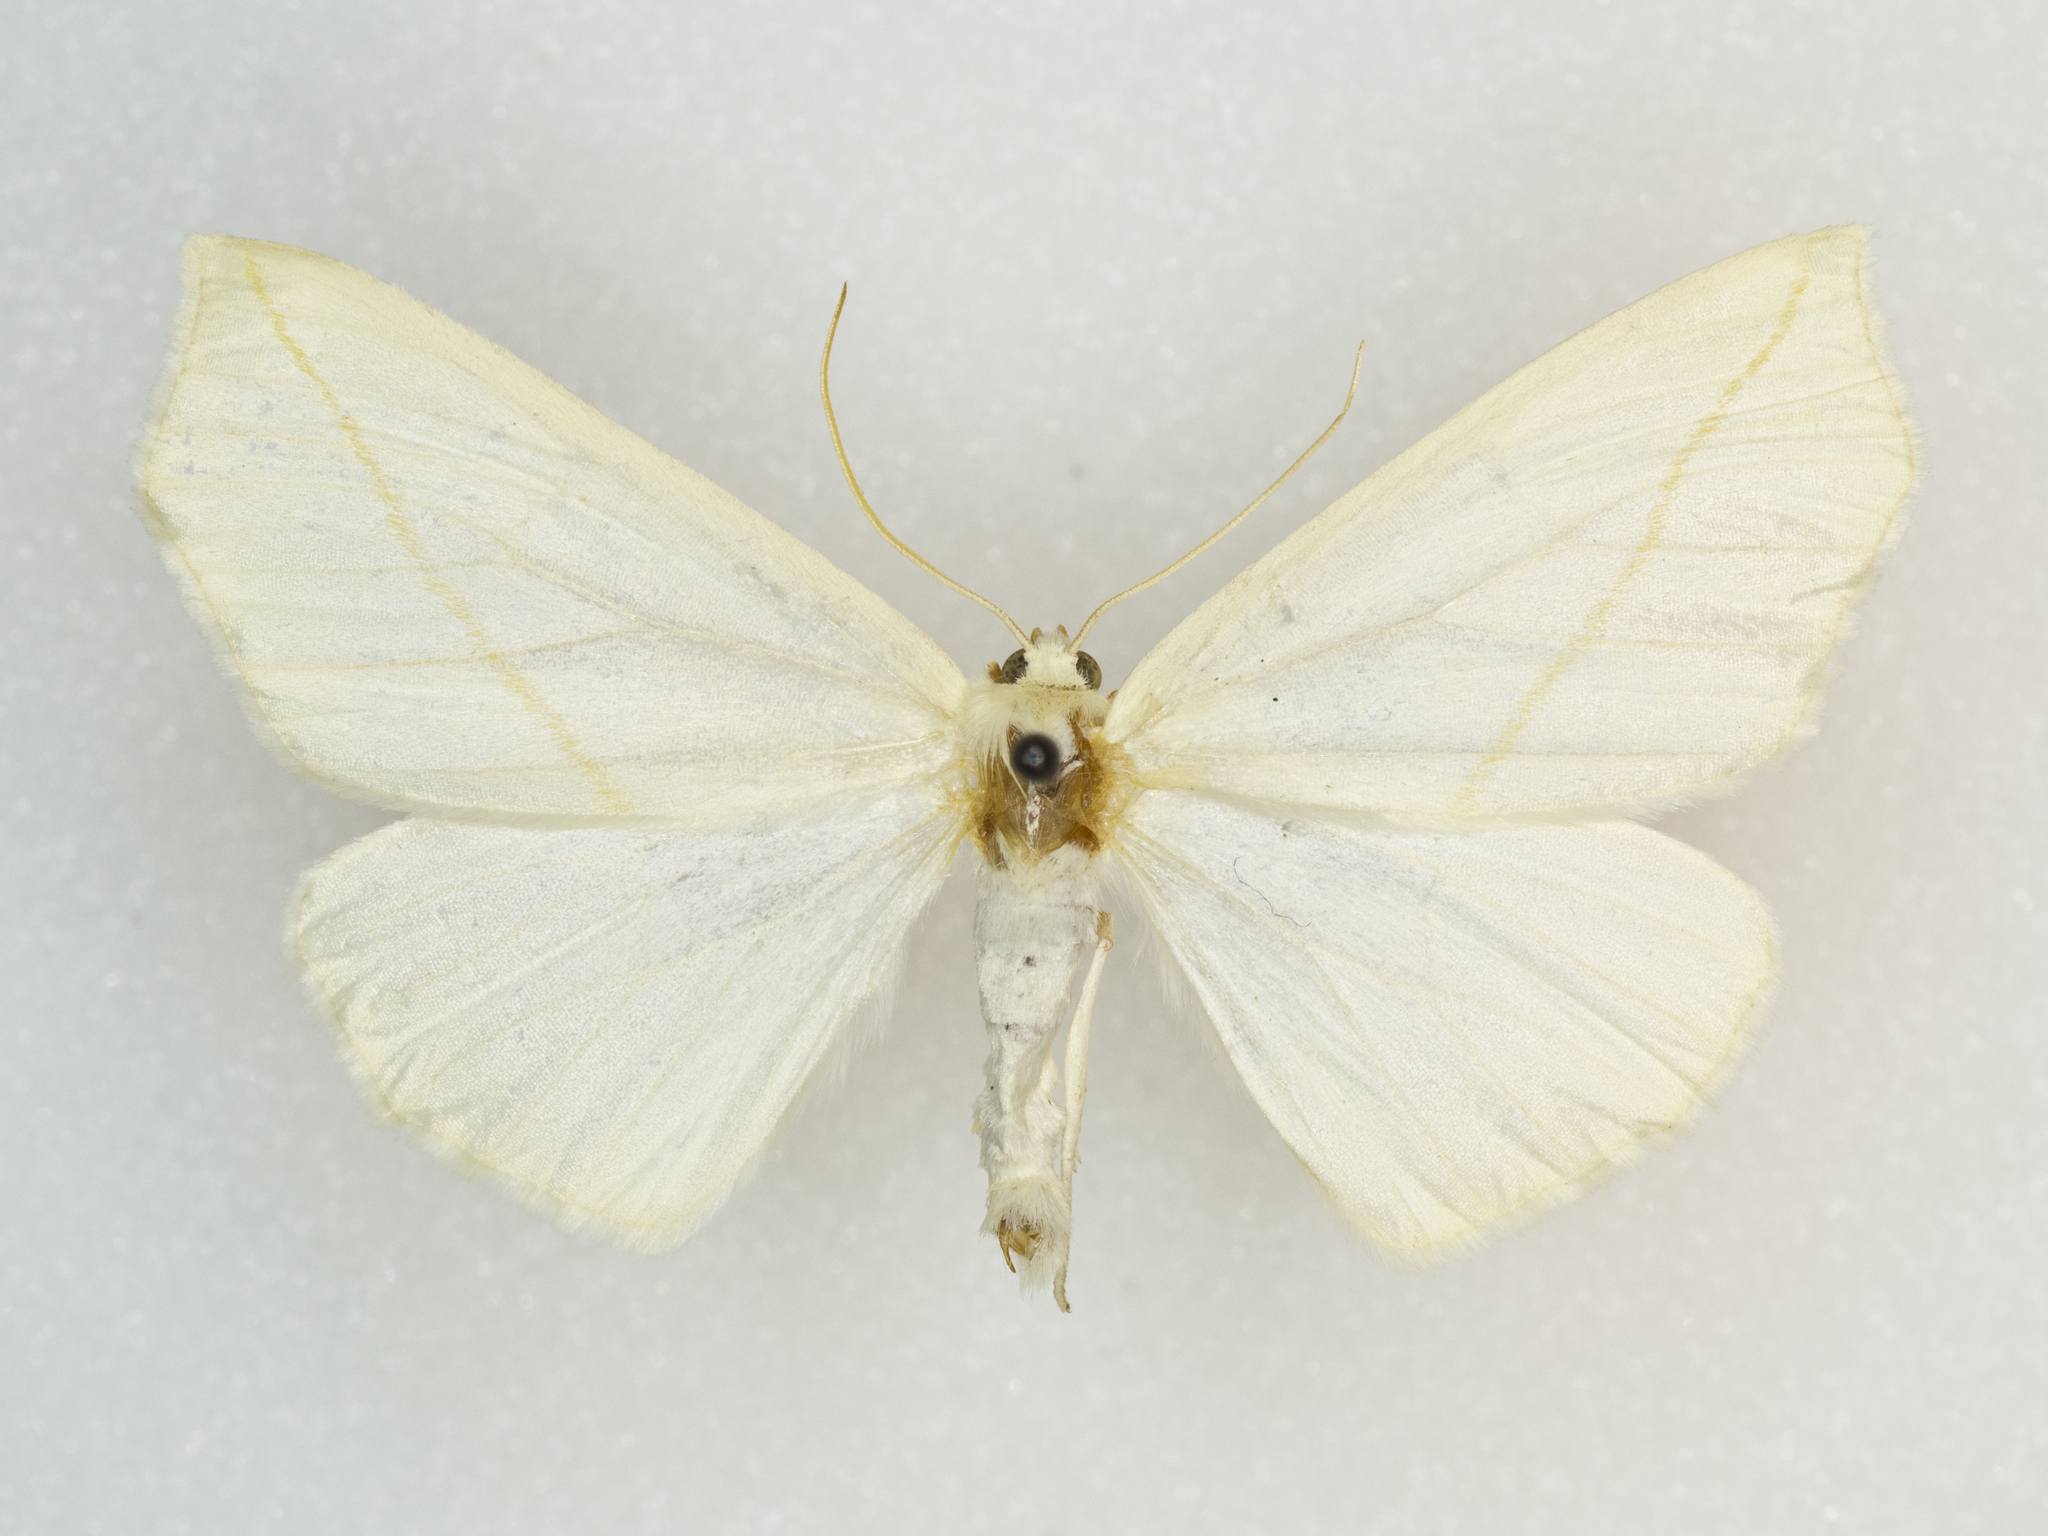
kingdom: Animalia
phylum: Arthropoda
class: Insecta
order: Lepidoptera
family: Geometridae
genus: Tetracis
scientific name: Tetracis cachexiata
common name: White slant-line
